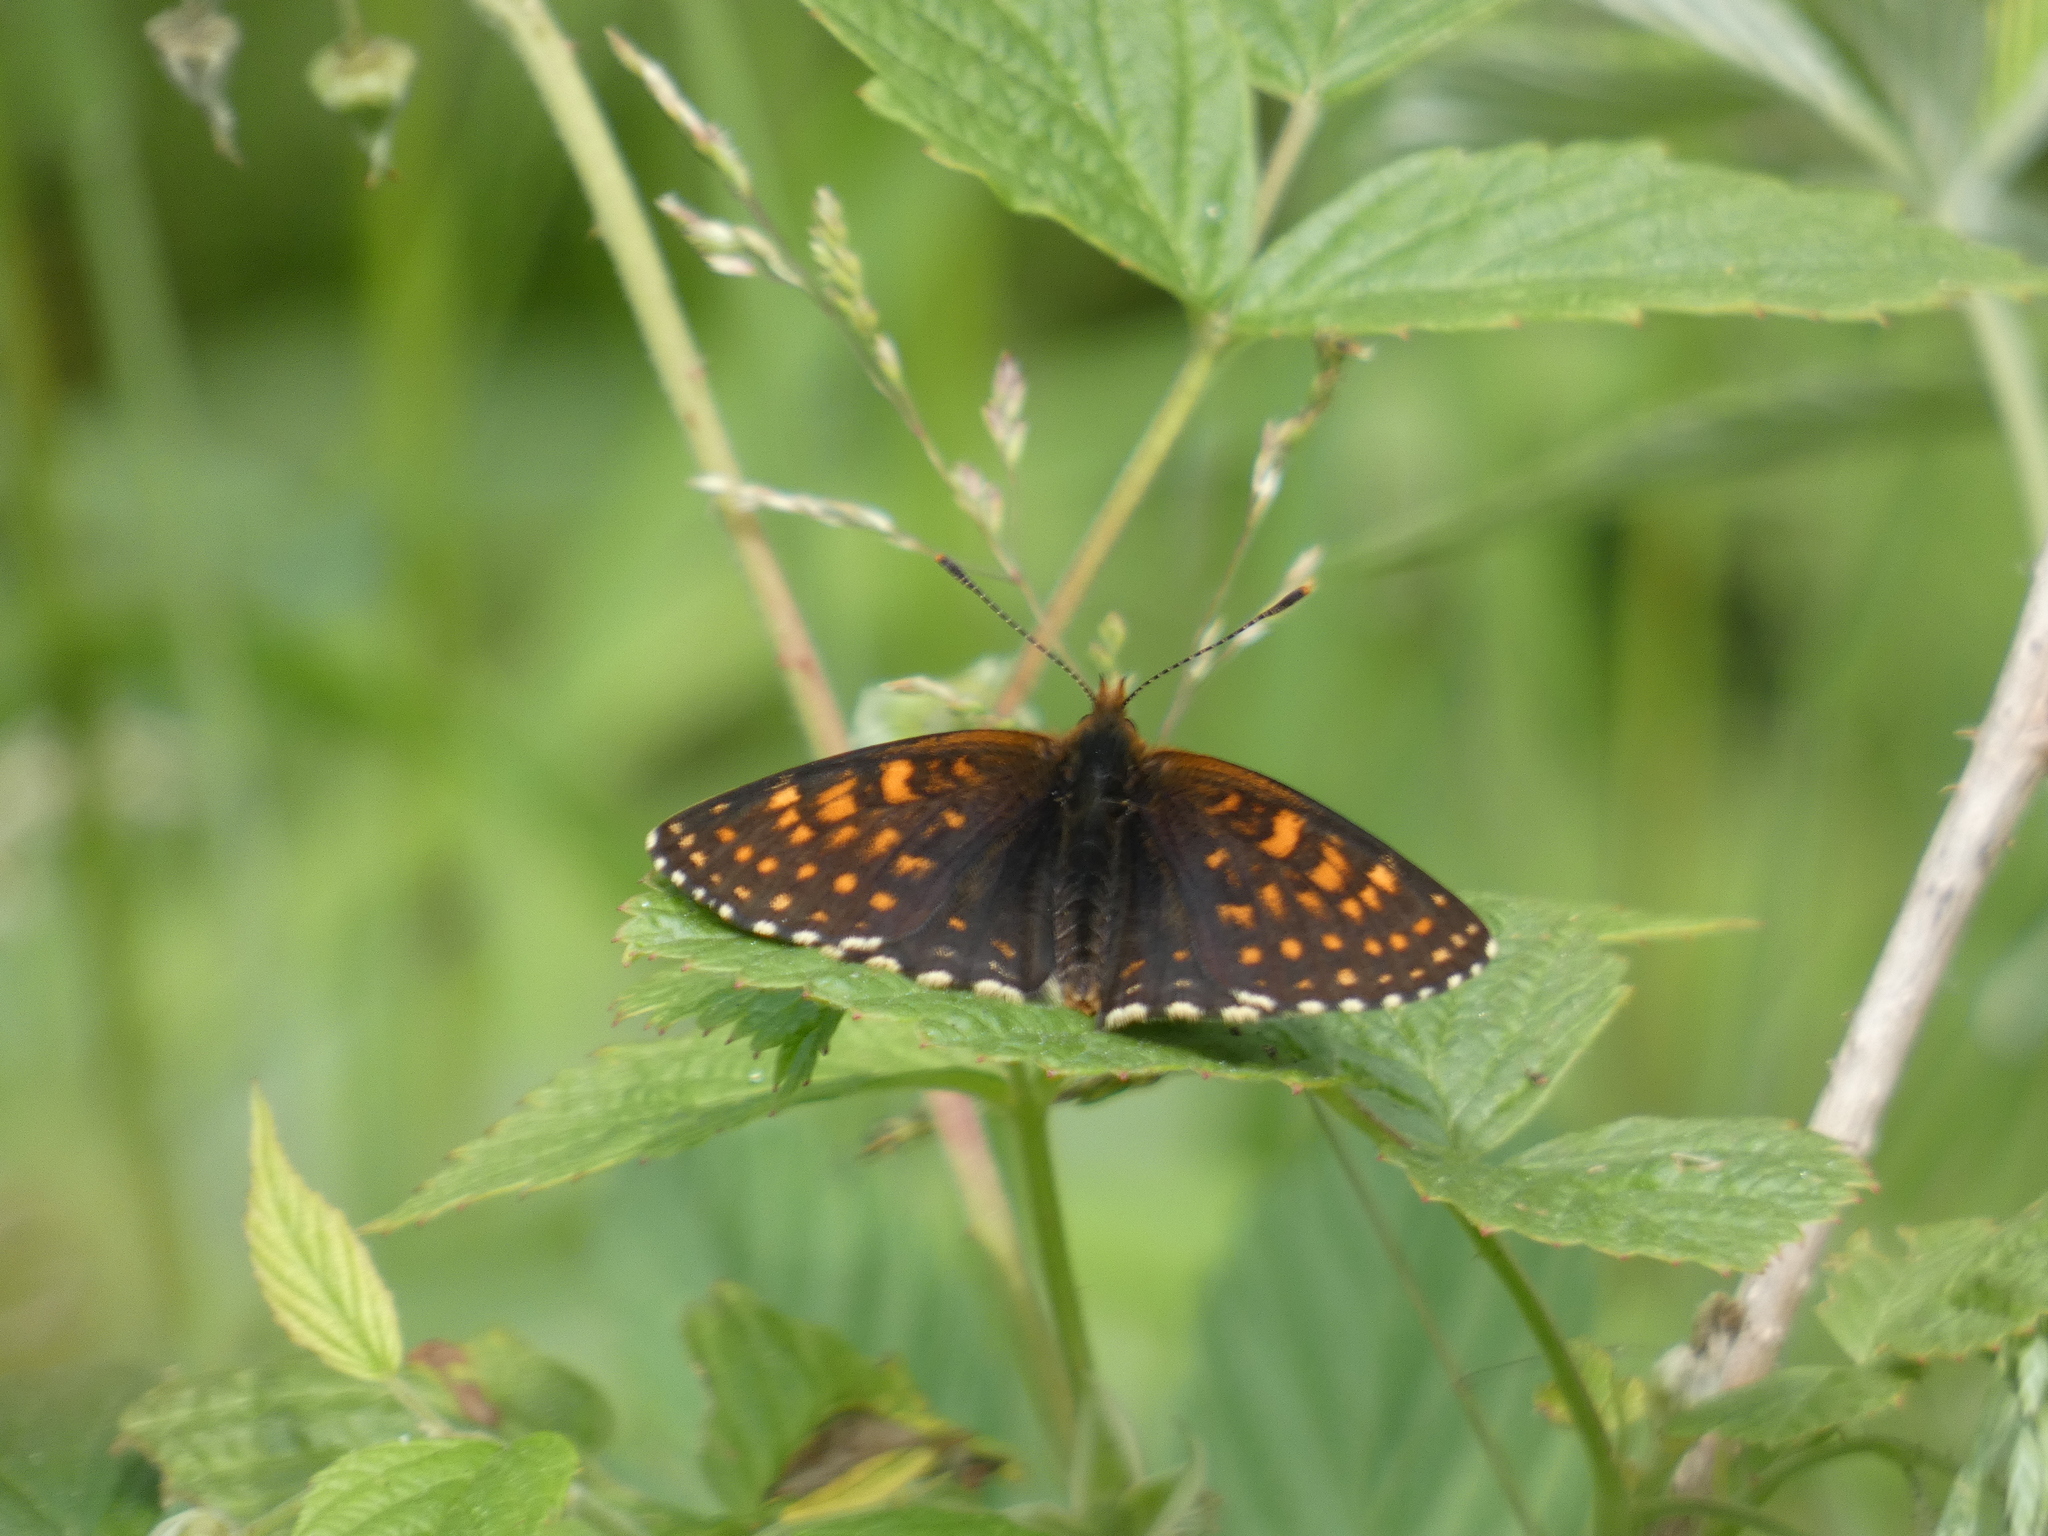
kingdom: Animalia
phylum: Arthropoda
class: Insecta
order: Lepidoptera
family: Nymphalidae
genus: Melitaea
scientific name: Melitaea diamina
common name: False heath fritillary
